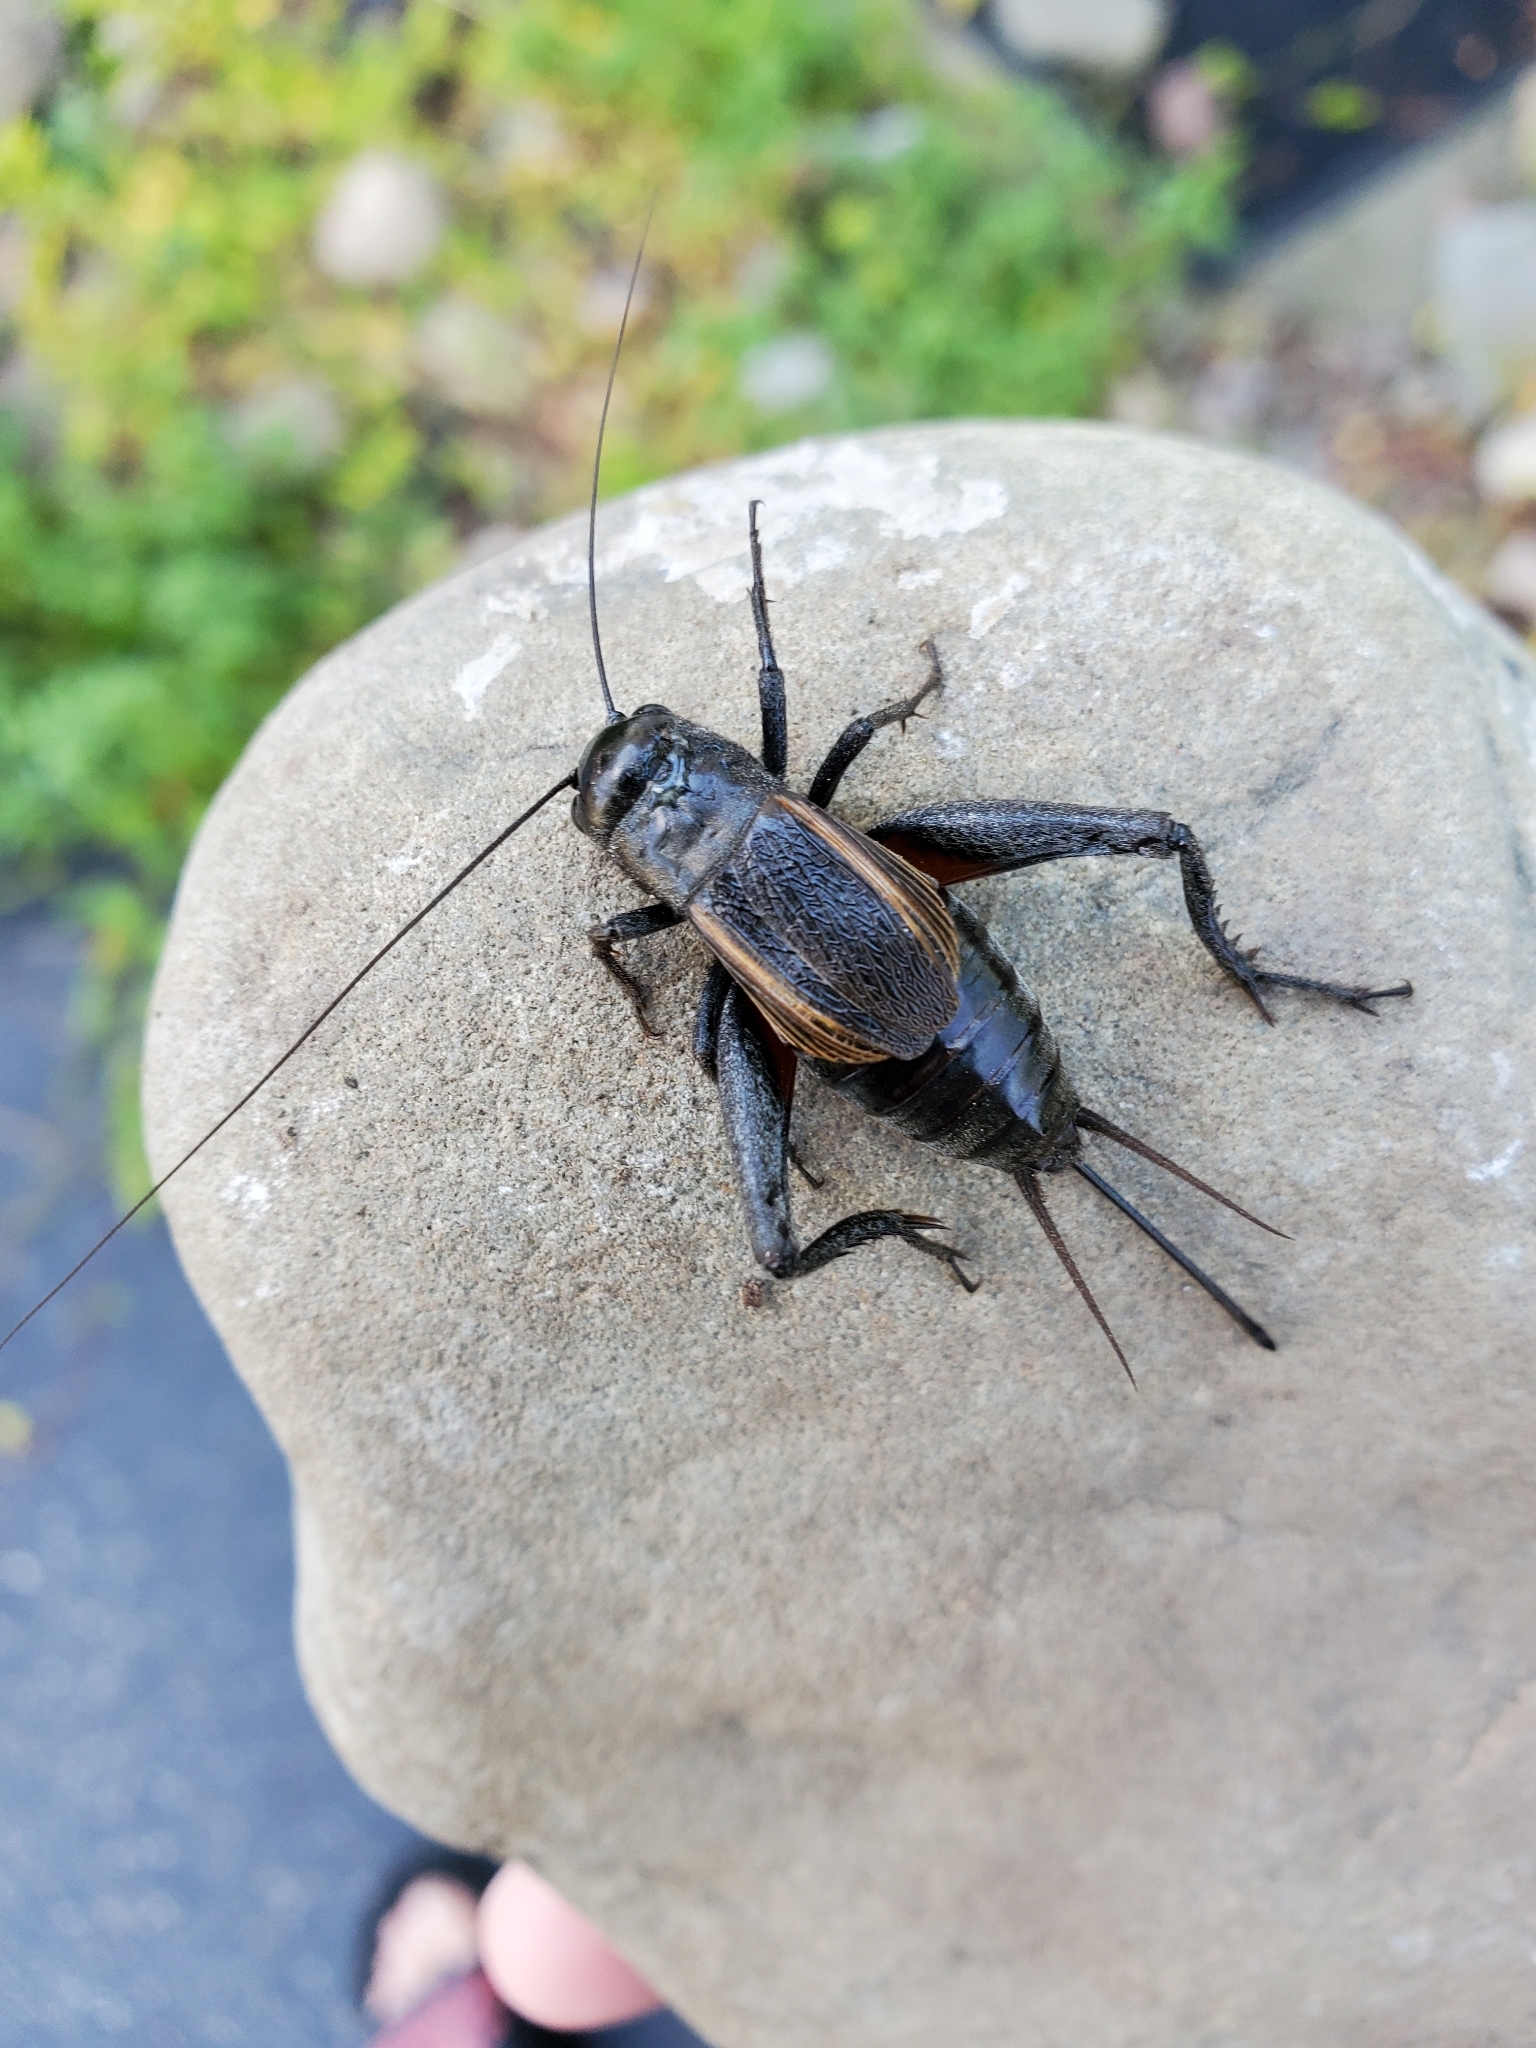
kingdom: Animalia
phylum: Arthropoda
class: Insecta
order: Orthoptera
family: Gryllidae
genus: Gryllus
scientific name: Gryllus pennsylvanicus
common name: Fall field cricket
